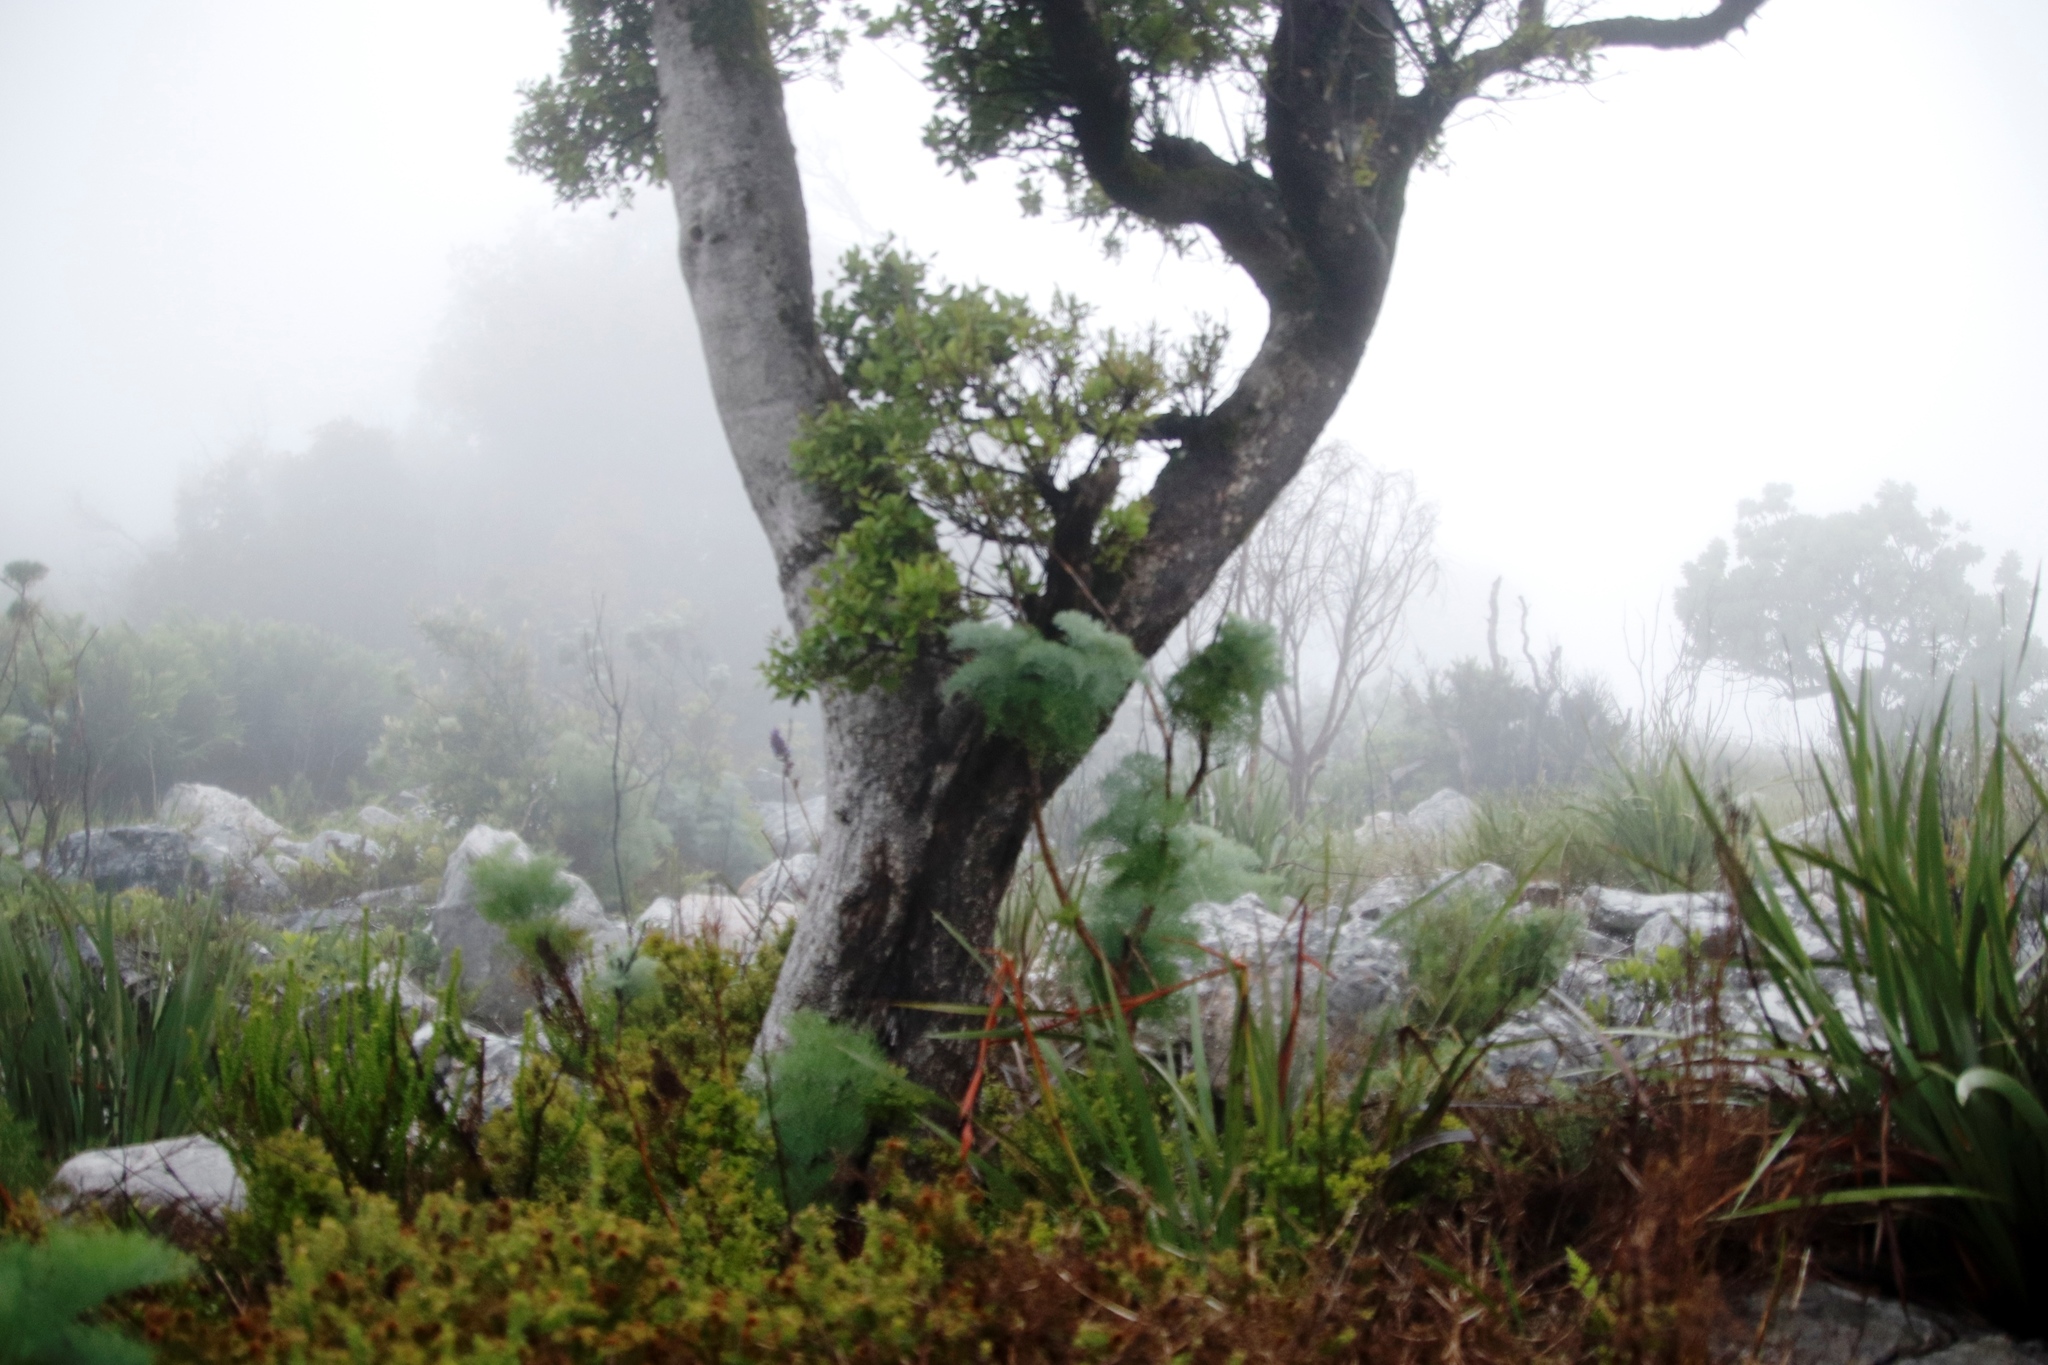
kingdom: Plantae
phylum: Tracheophyta
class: Magnoliopsida
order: Celastrales
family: Celastraceae
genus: Gymnosporia
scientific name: Gymnosporia laurina
